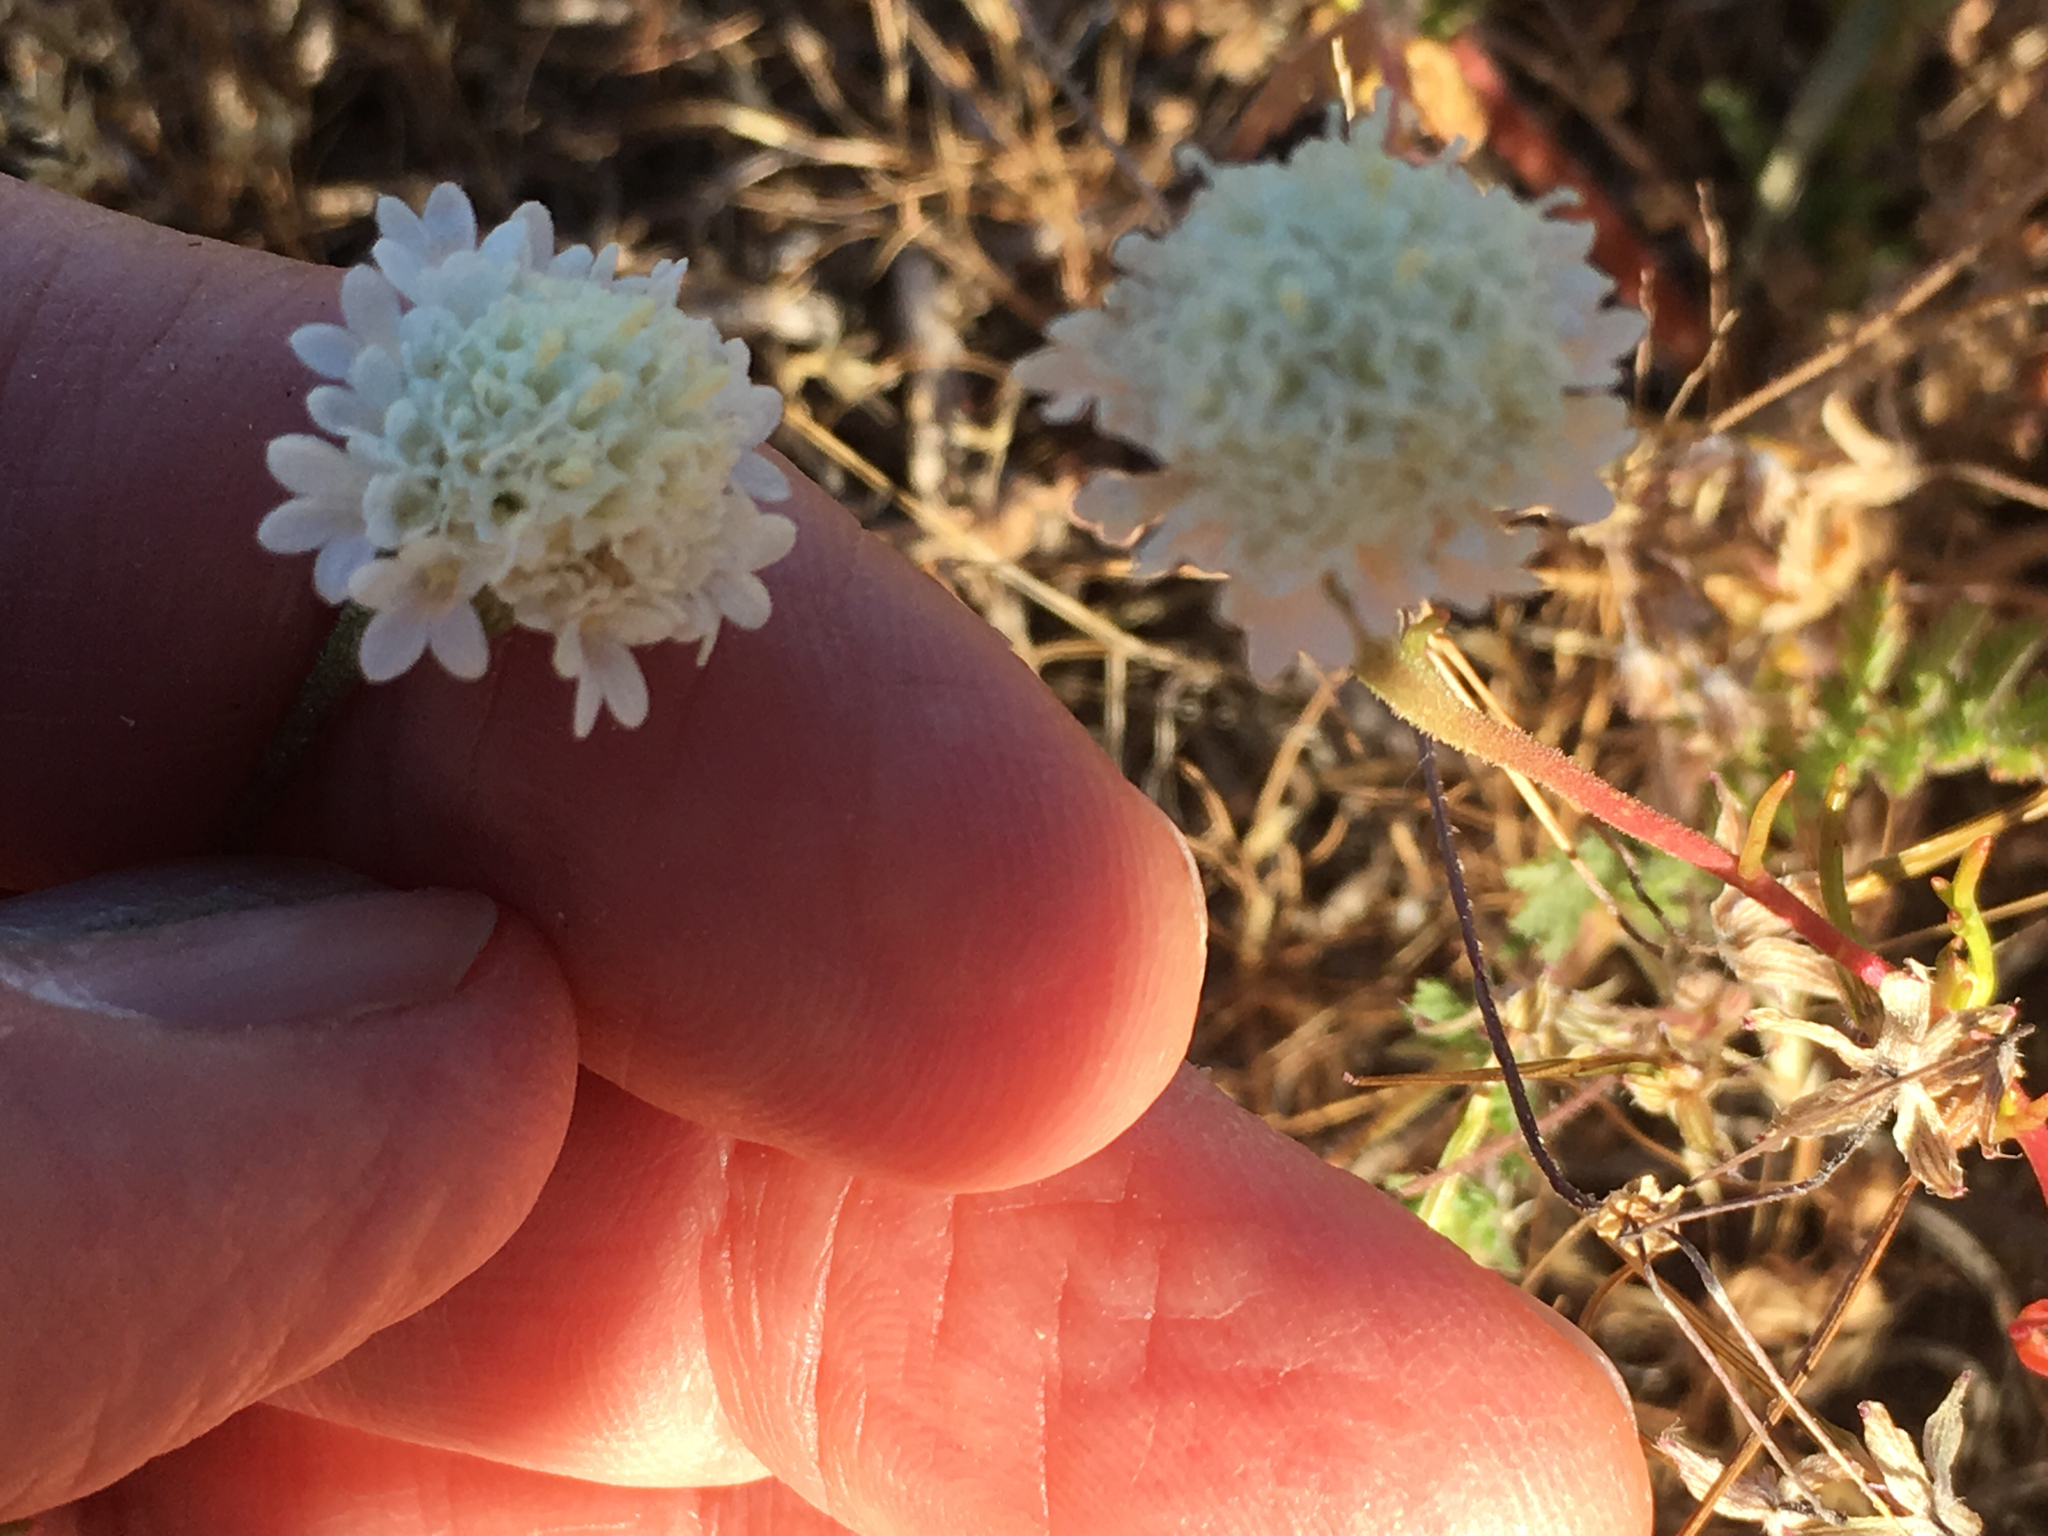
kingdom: Plantae
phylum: Tracheophyta
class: Magnoliopsida
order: Asterales
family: Asteraceae
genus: Chaenactis
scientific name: Chaenactis fremontii
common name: Fremont pincushion
